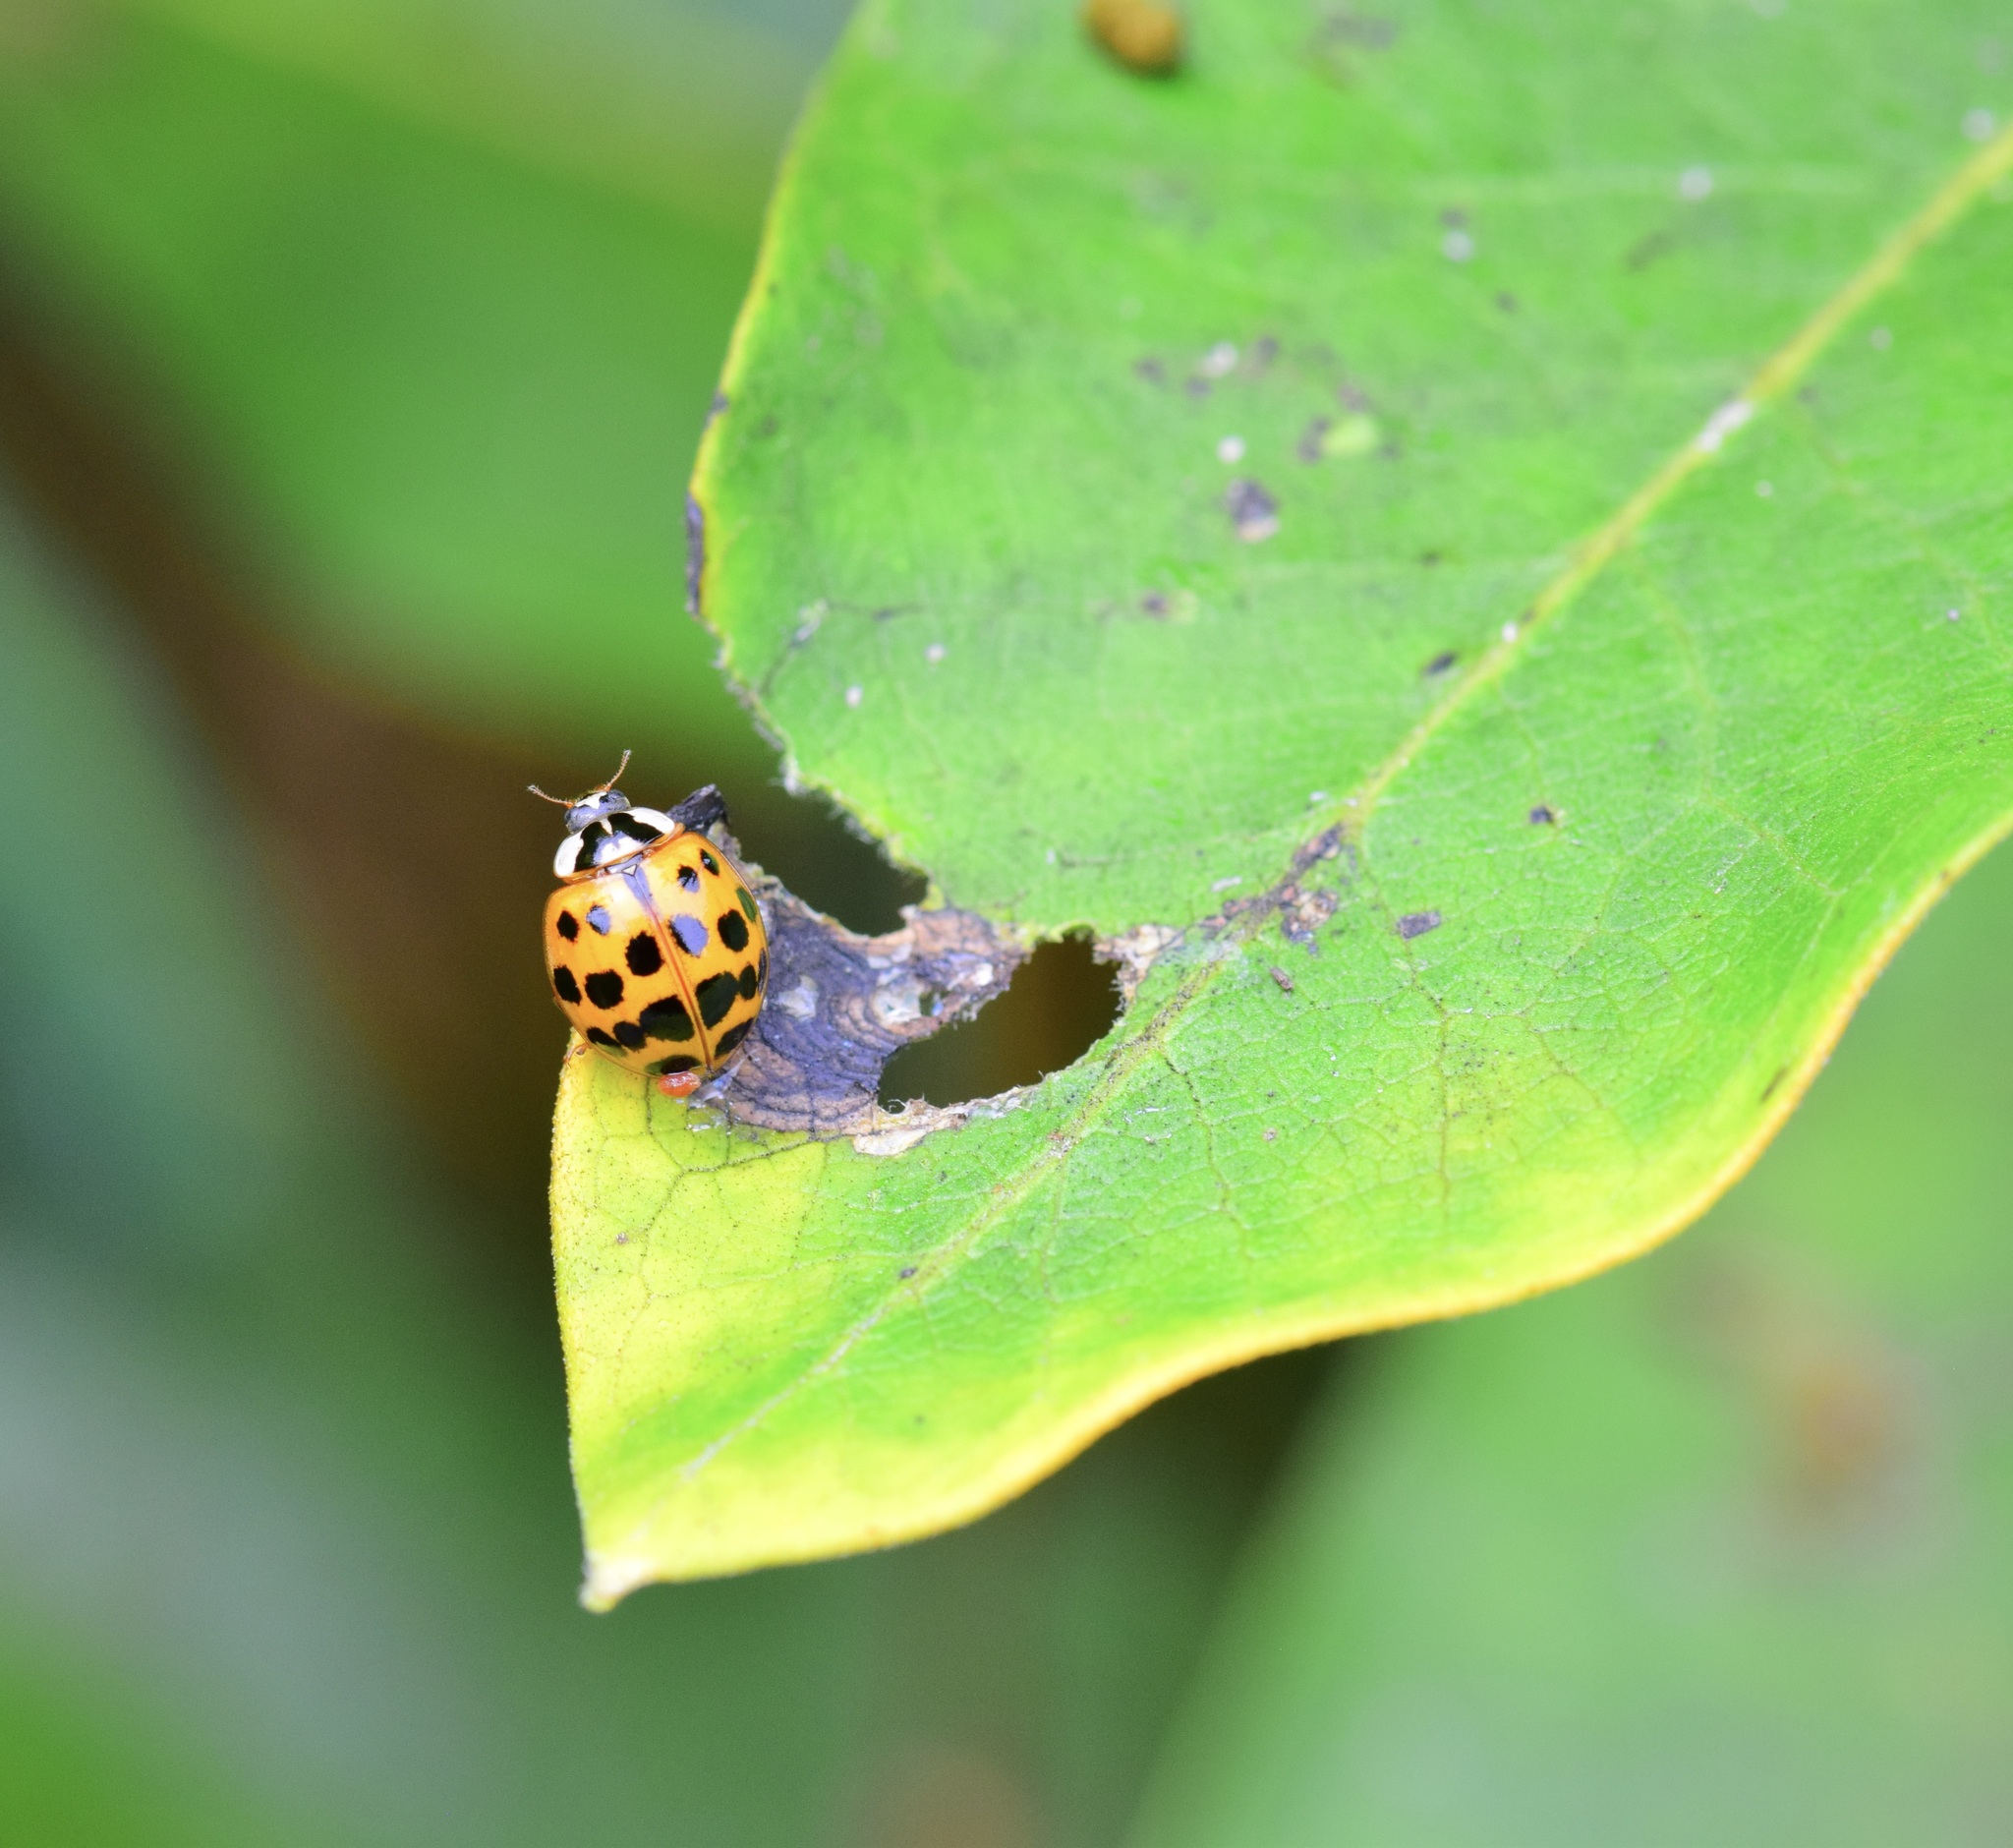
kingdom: Animalia
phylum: Arthropoda
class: Insecta
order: Coleoptera
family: Coccinellidae
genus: Harmonia
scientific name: Harmonia axyridis
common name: Harlequin ladybird
